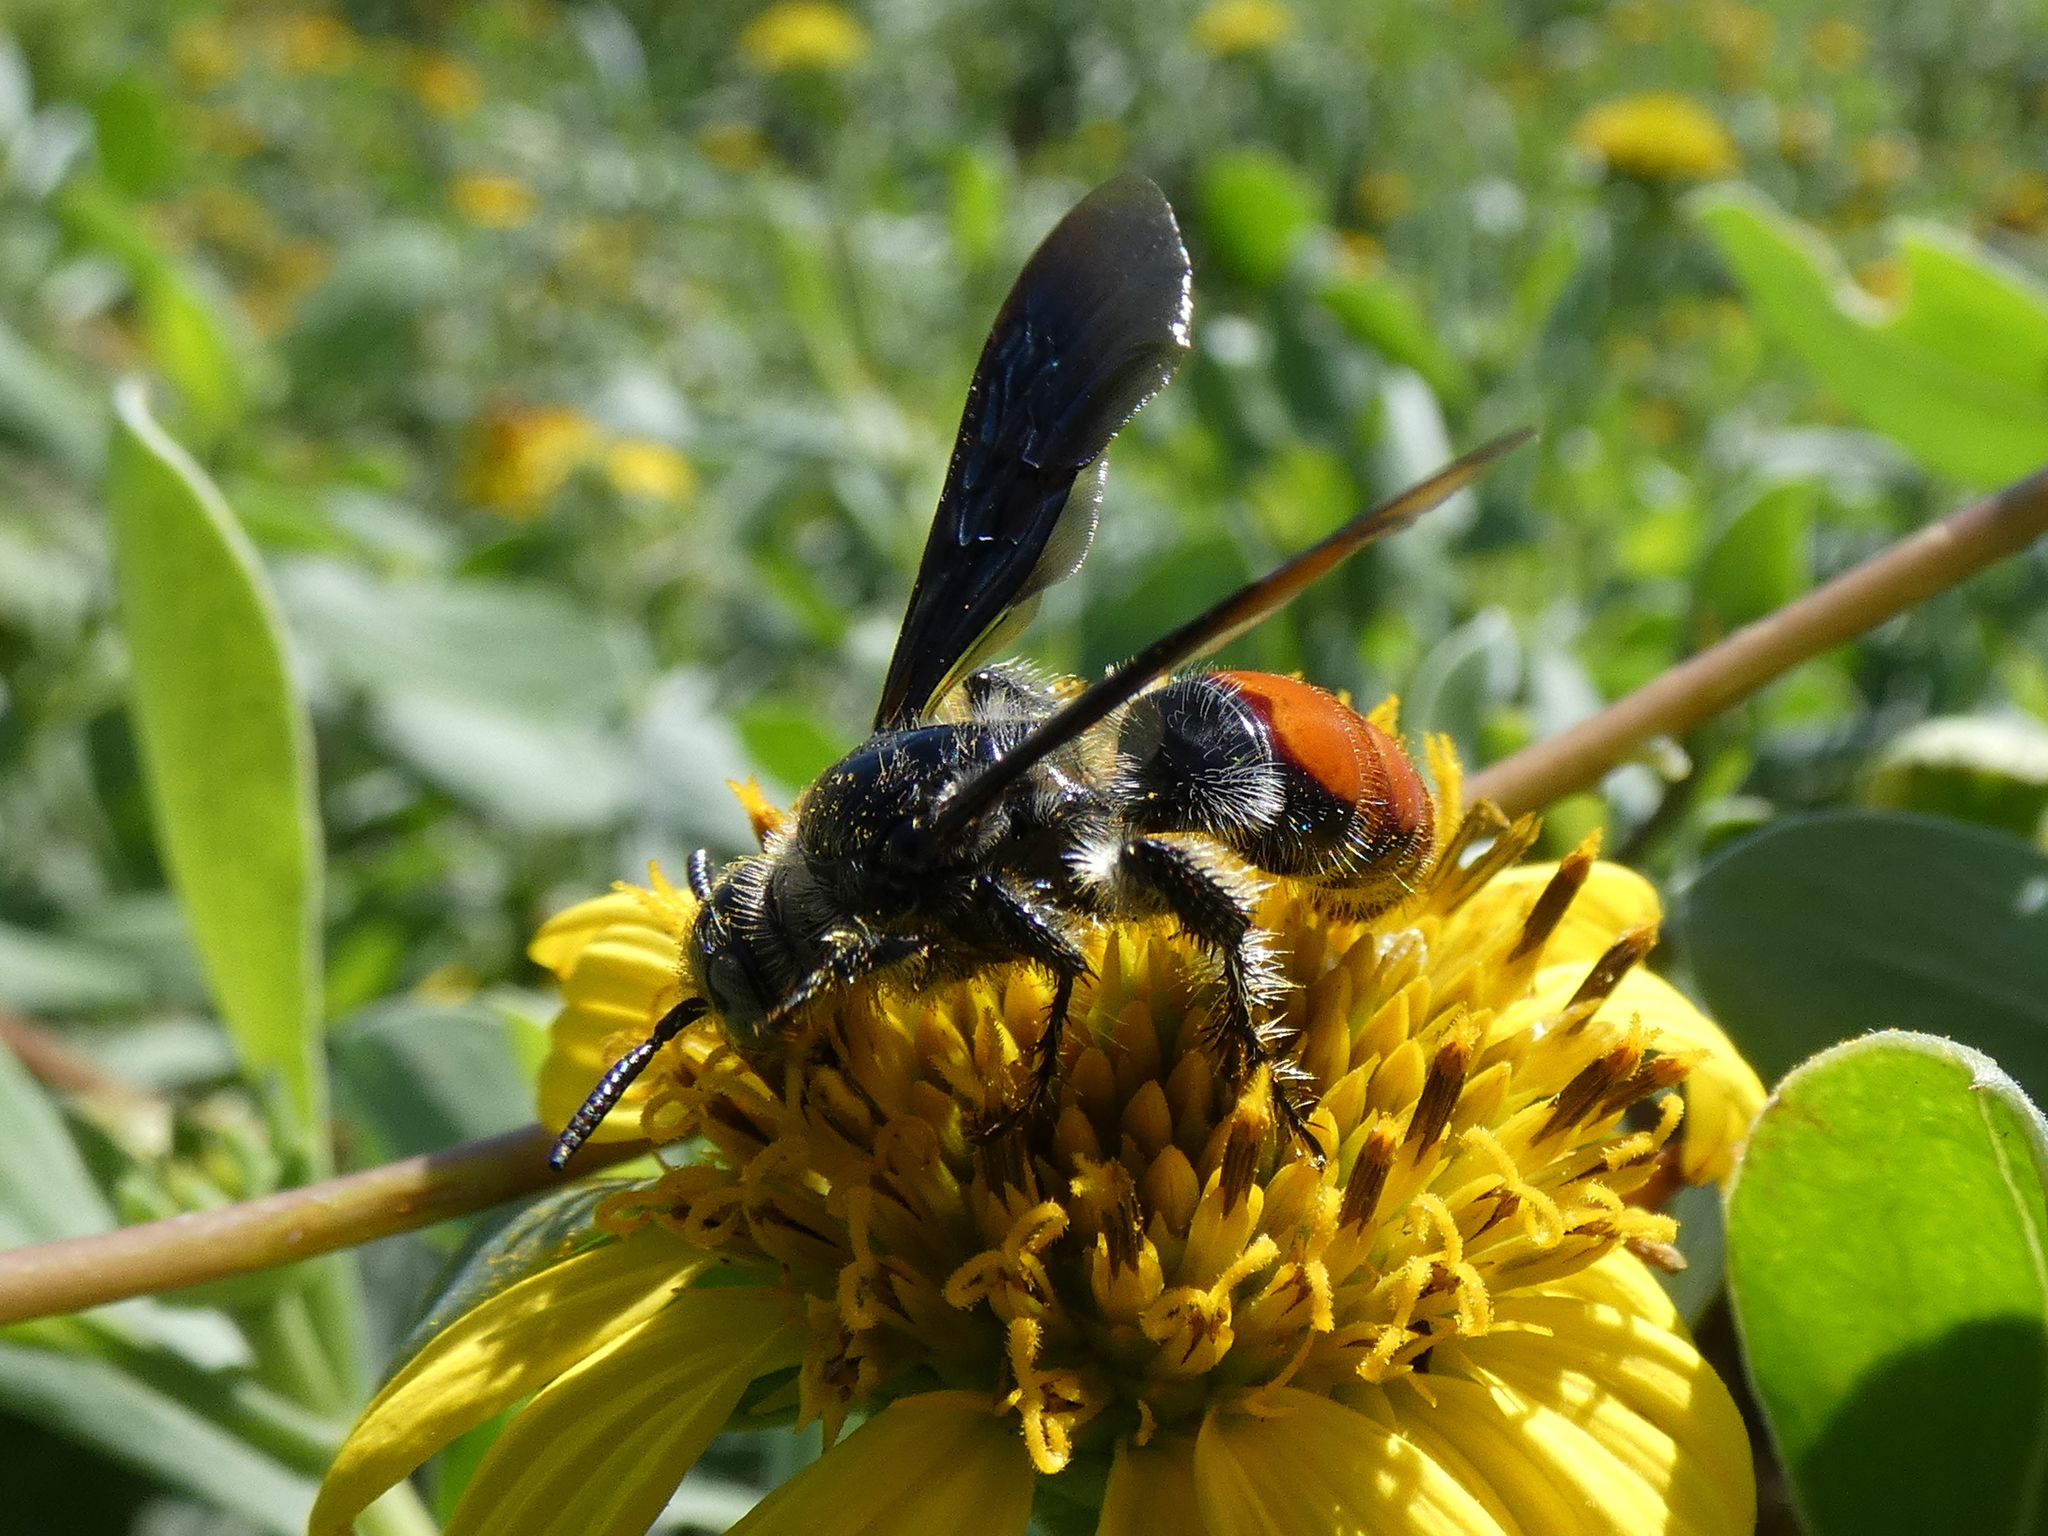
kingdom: Animalia
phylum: Arthropoda
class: Insecta
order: Hymenoptera
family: Scoliidae
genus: Dielis
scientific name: Dielis dorsata
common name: Scoliid wasp
